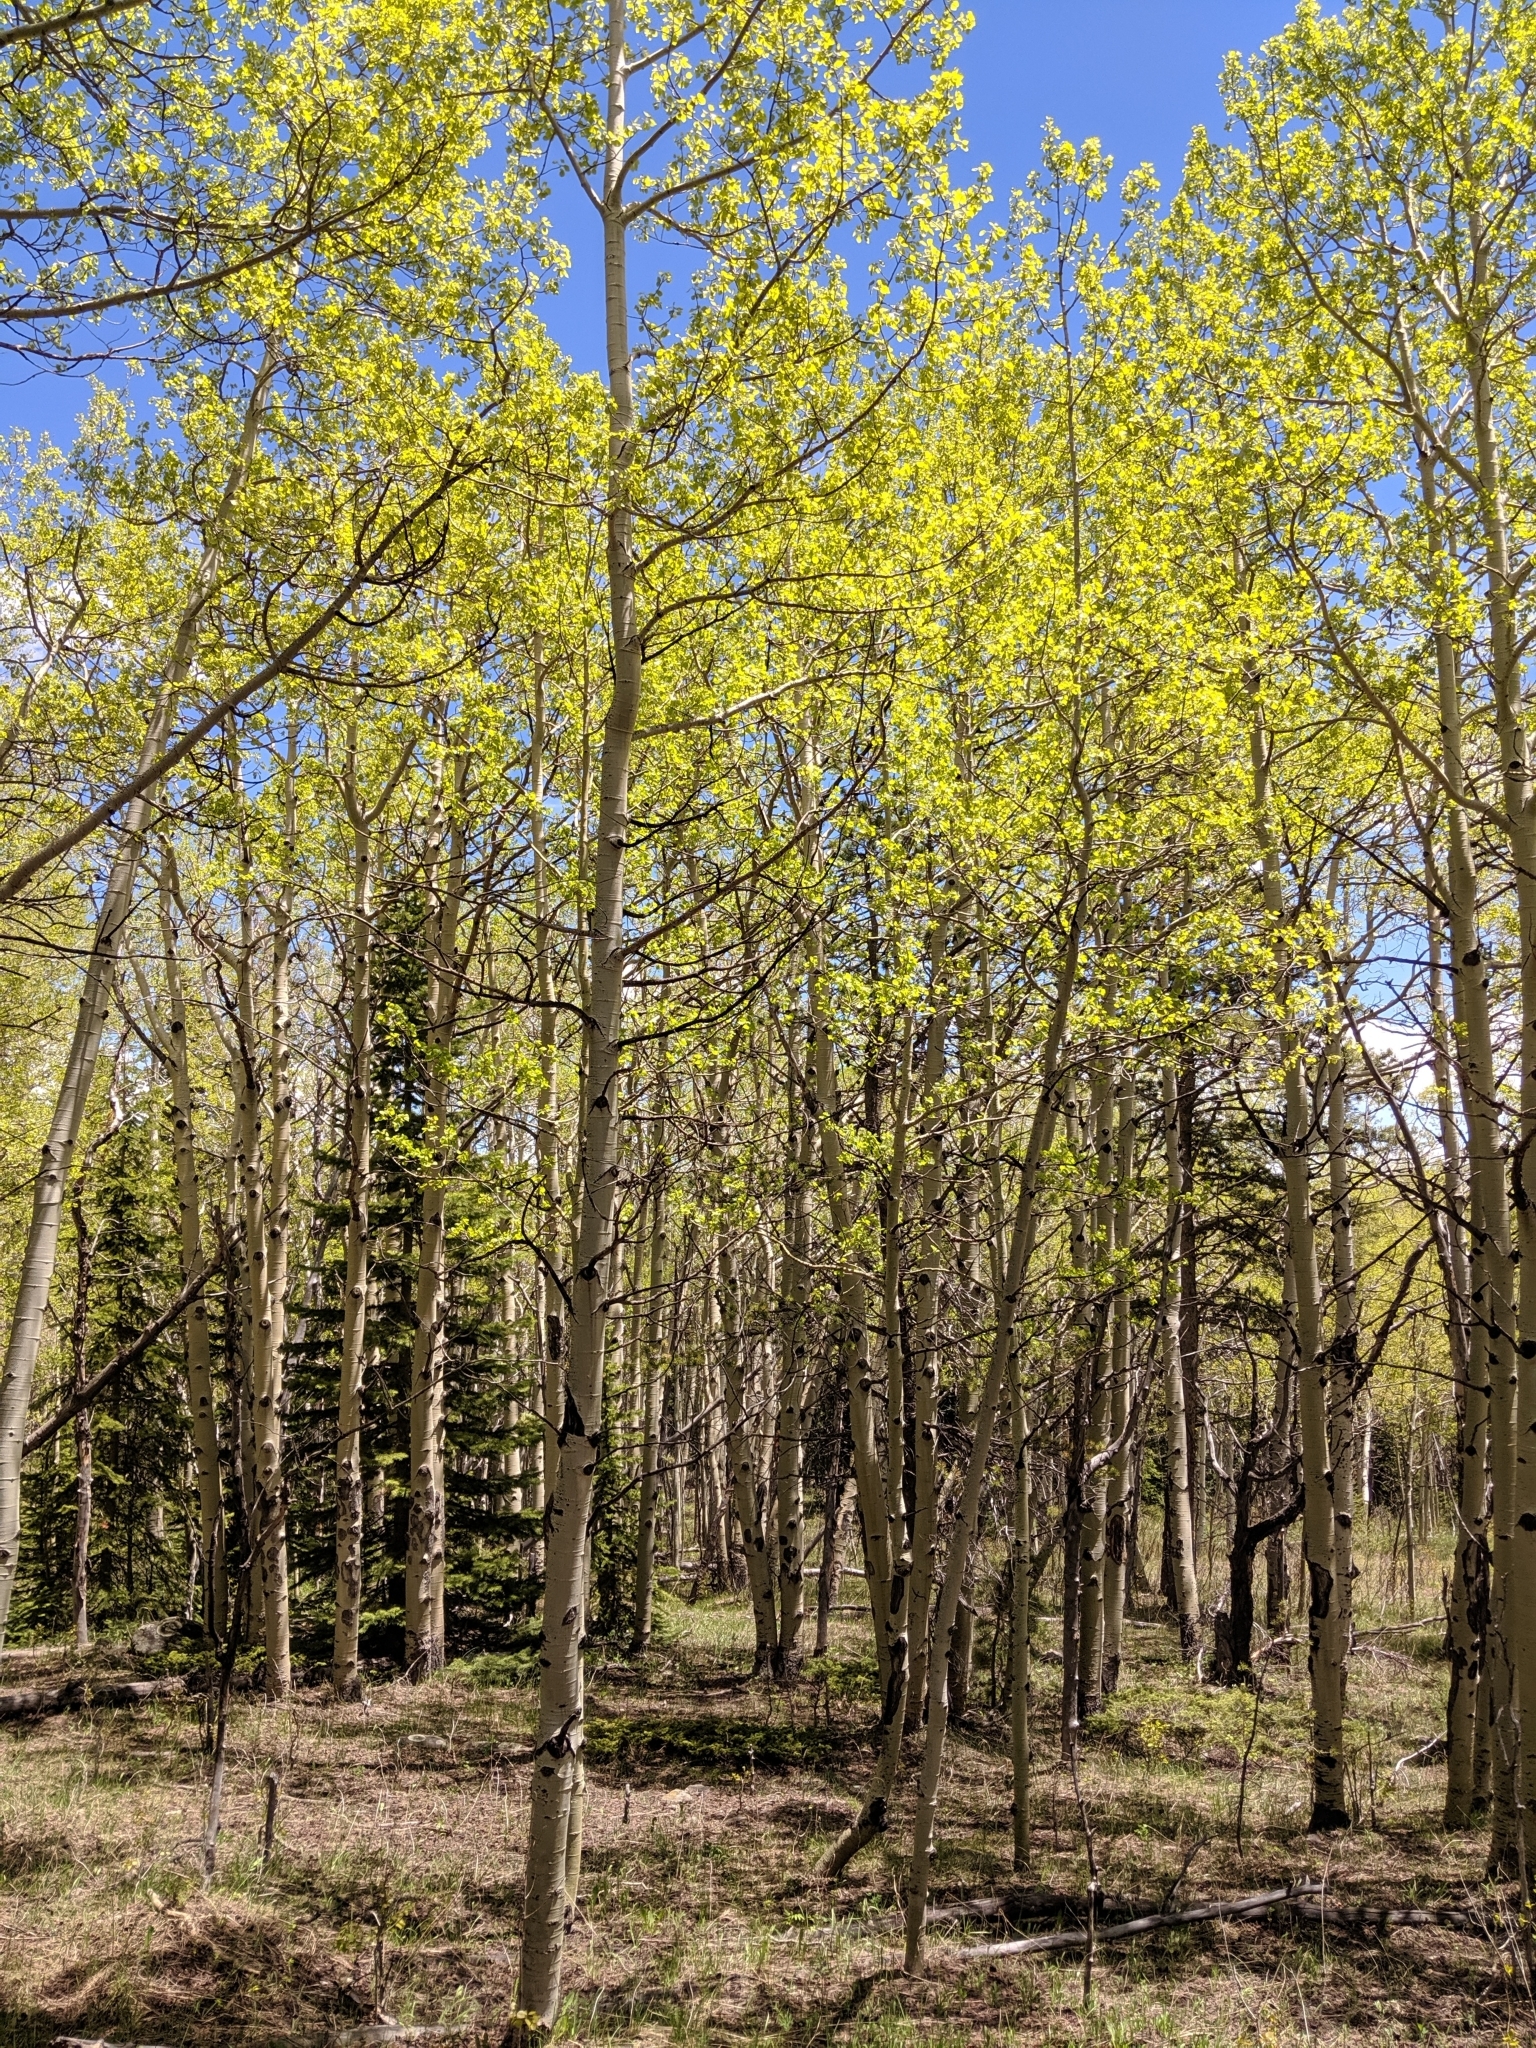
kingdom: Plantae
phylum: Tracheophyta
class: Magnoliopsida
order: Malpighiales
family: Salicaceae
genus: Populus
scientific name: Populus tremuloides
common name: Quaking aspen
